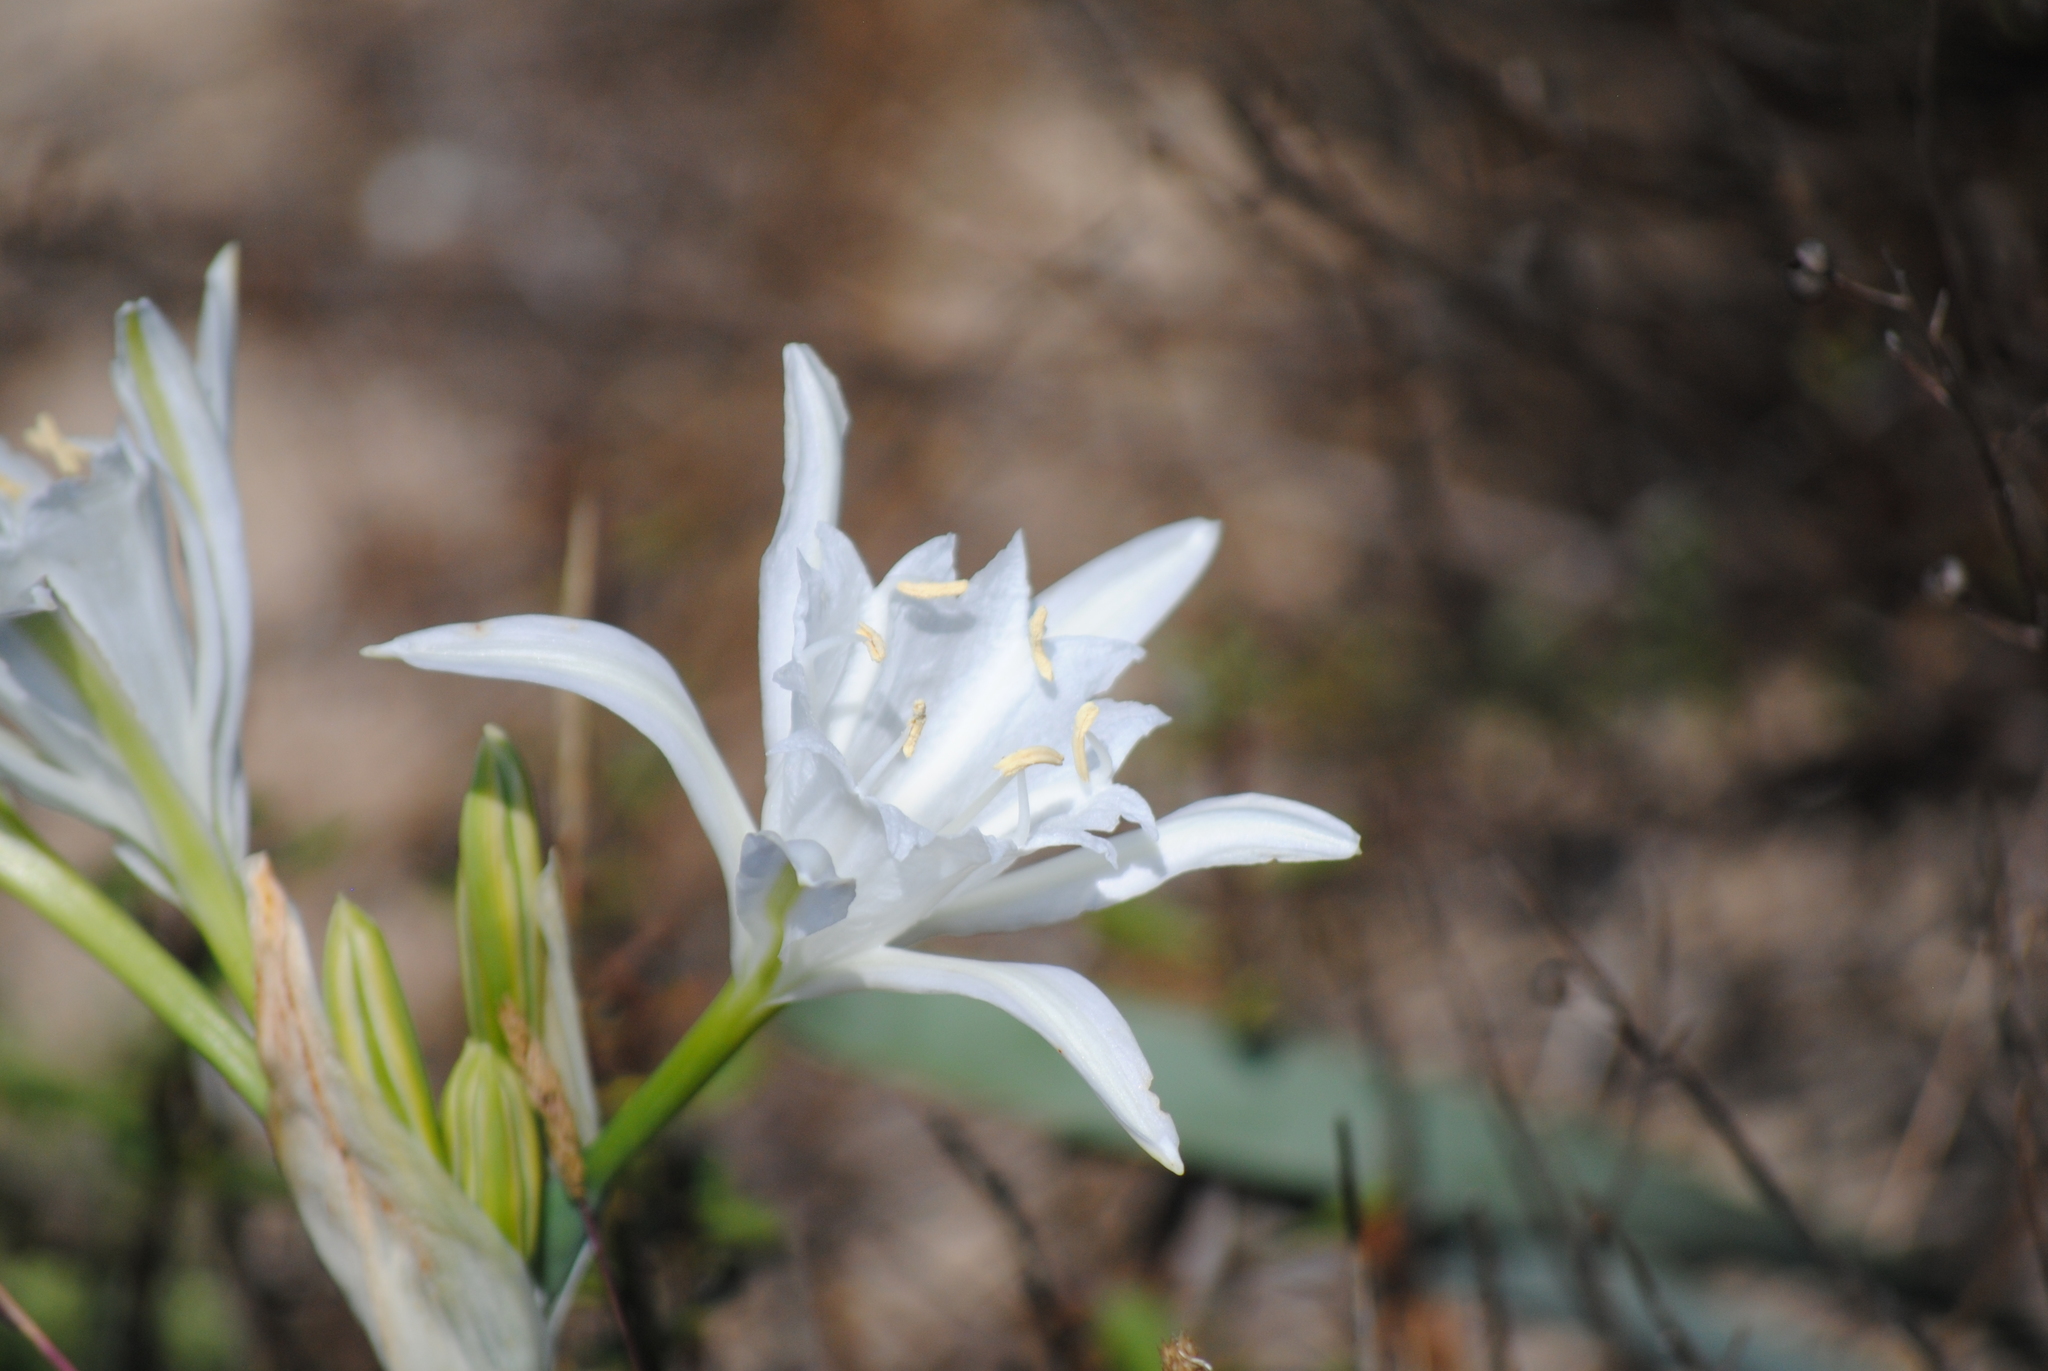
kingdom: Plantae
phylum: Tracheophyta
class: Liliopsida
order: Asparagales
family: Amaryllidaceae
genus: Pancratium
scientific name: Pancratium maritimum
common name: Sea-daffodil
